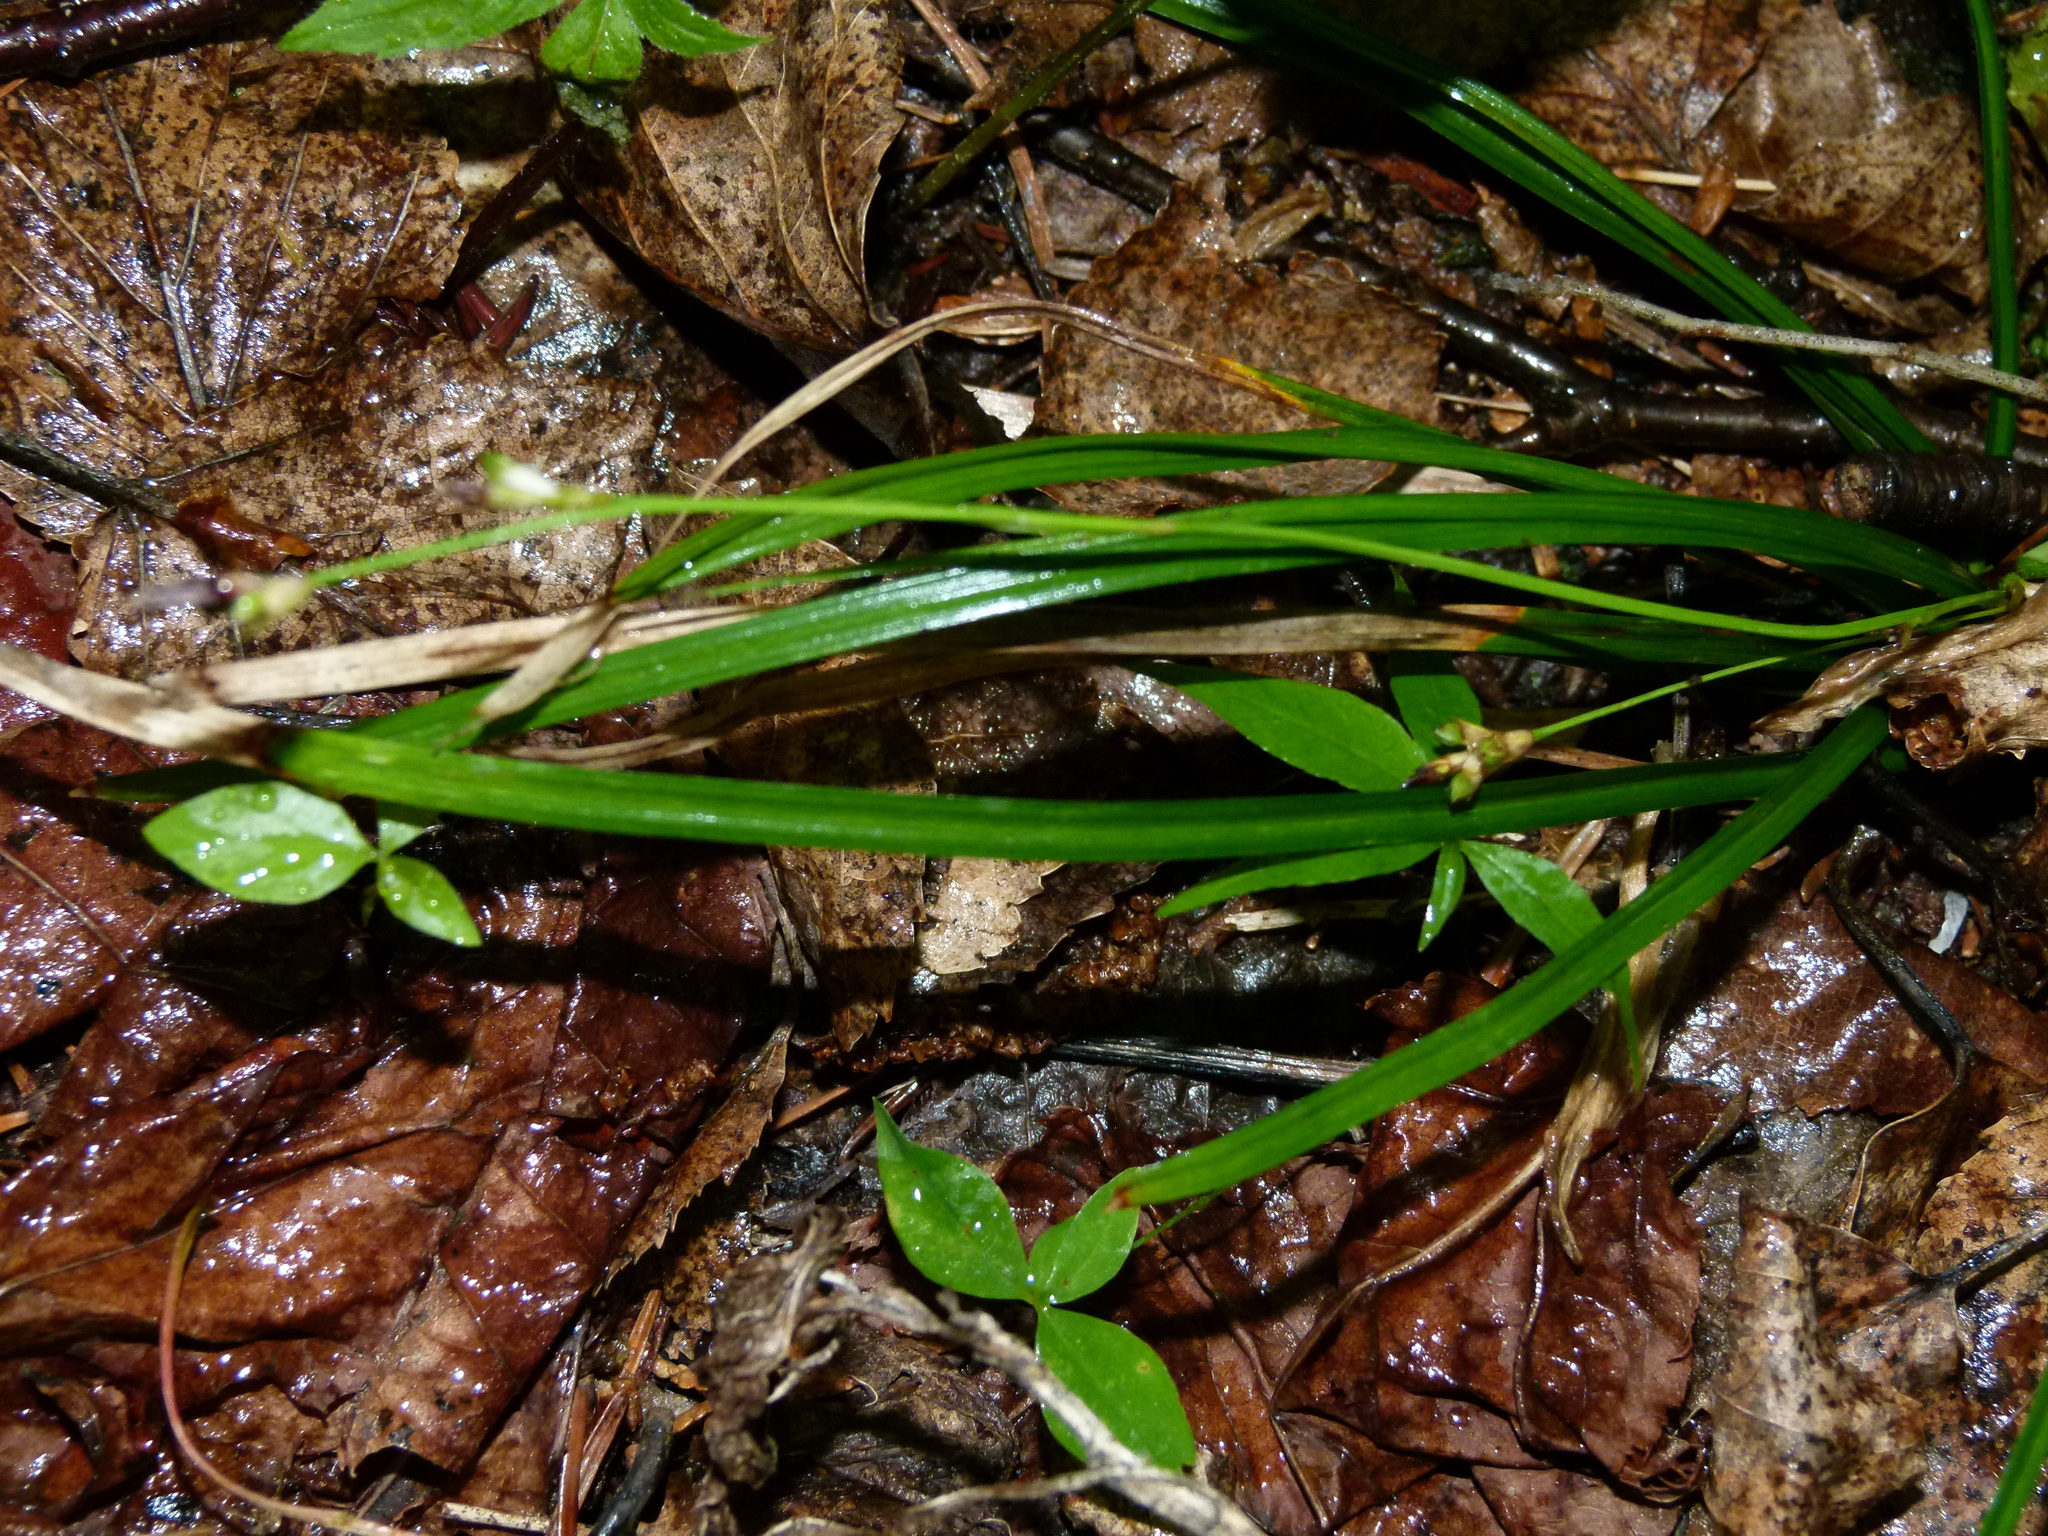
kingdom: Plantae
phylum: Tracheophyta
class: Liliopsida
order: Poales
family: Cyperaceae
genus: Carex
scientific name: Carex pedunculata
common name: Pedunculate sedge
